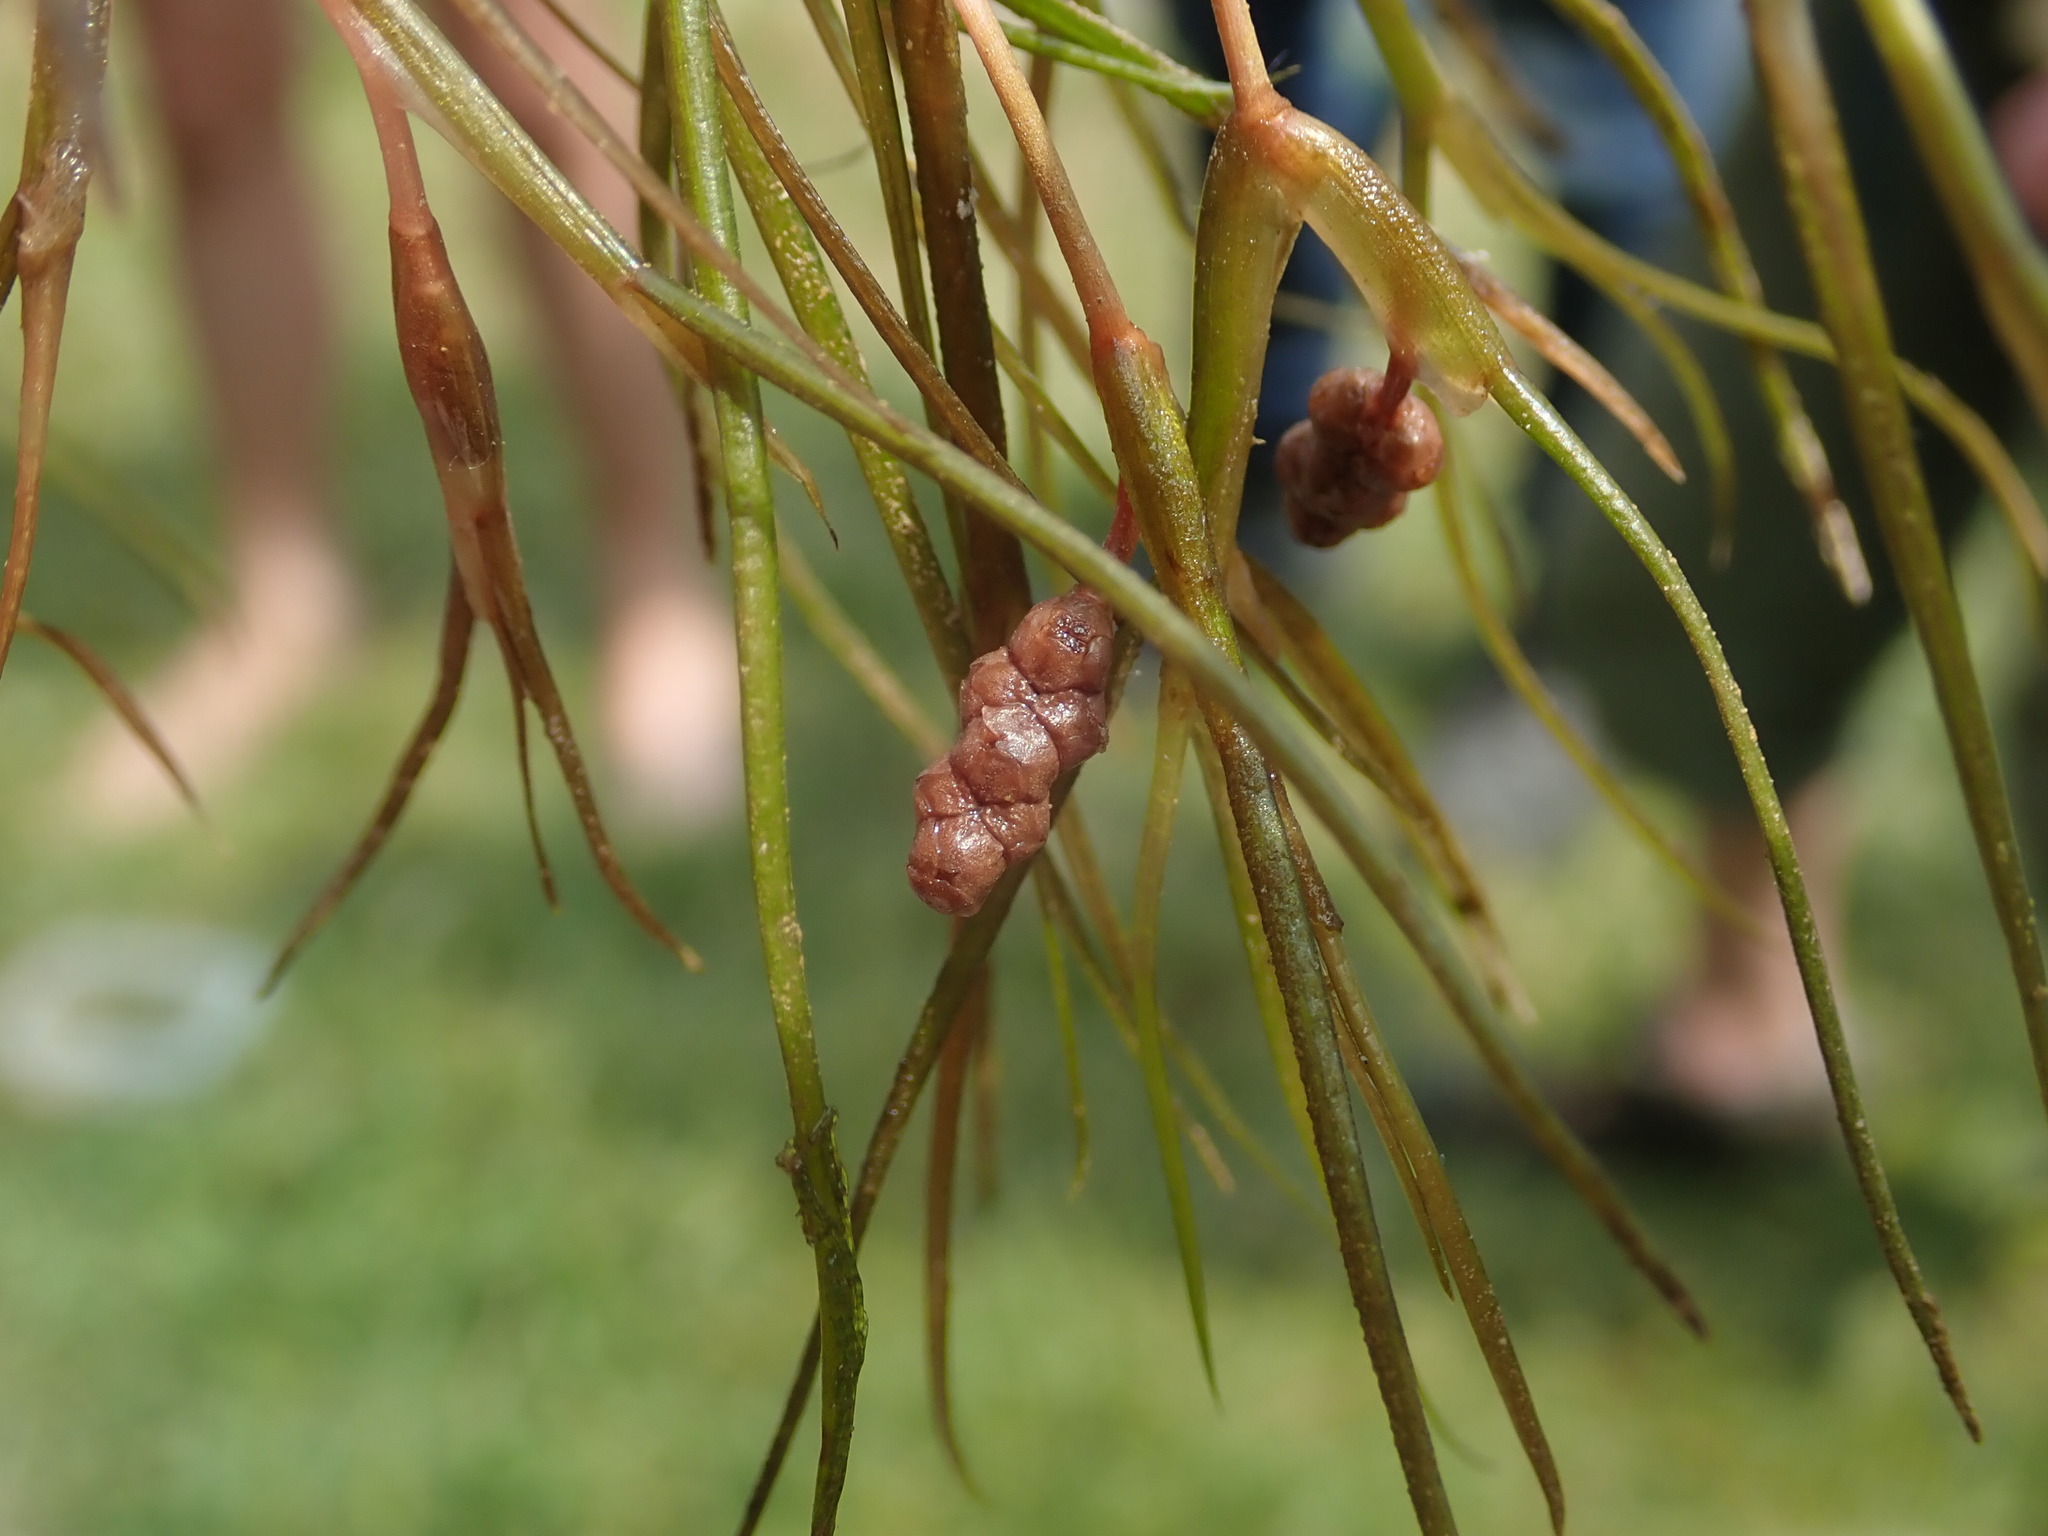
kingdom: Plantae
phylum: Tracheophyta
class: Liliopsida
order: Alismatales
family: Potamogetonaceae
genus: Stuckenia
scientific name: Stuckenia pectinata
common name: Sago pondweed
